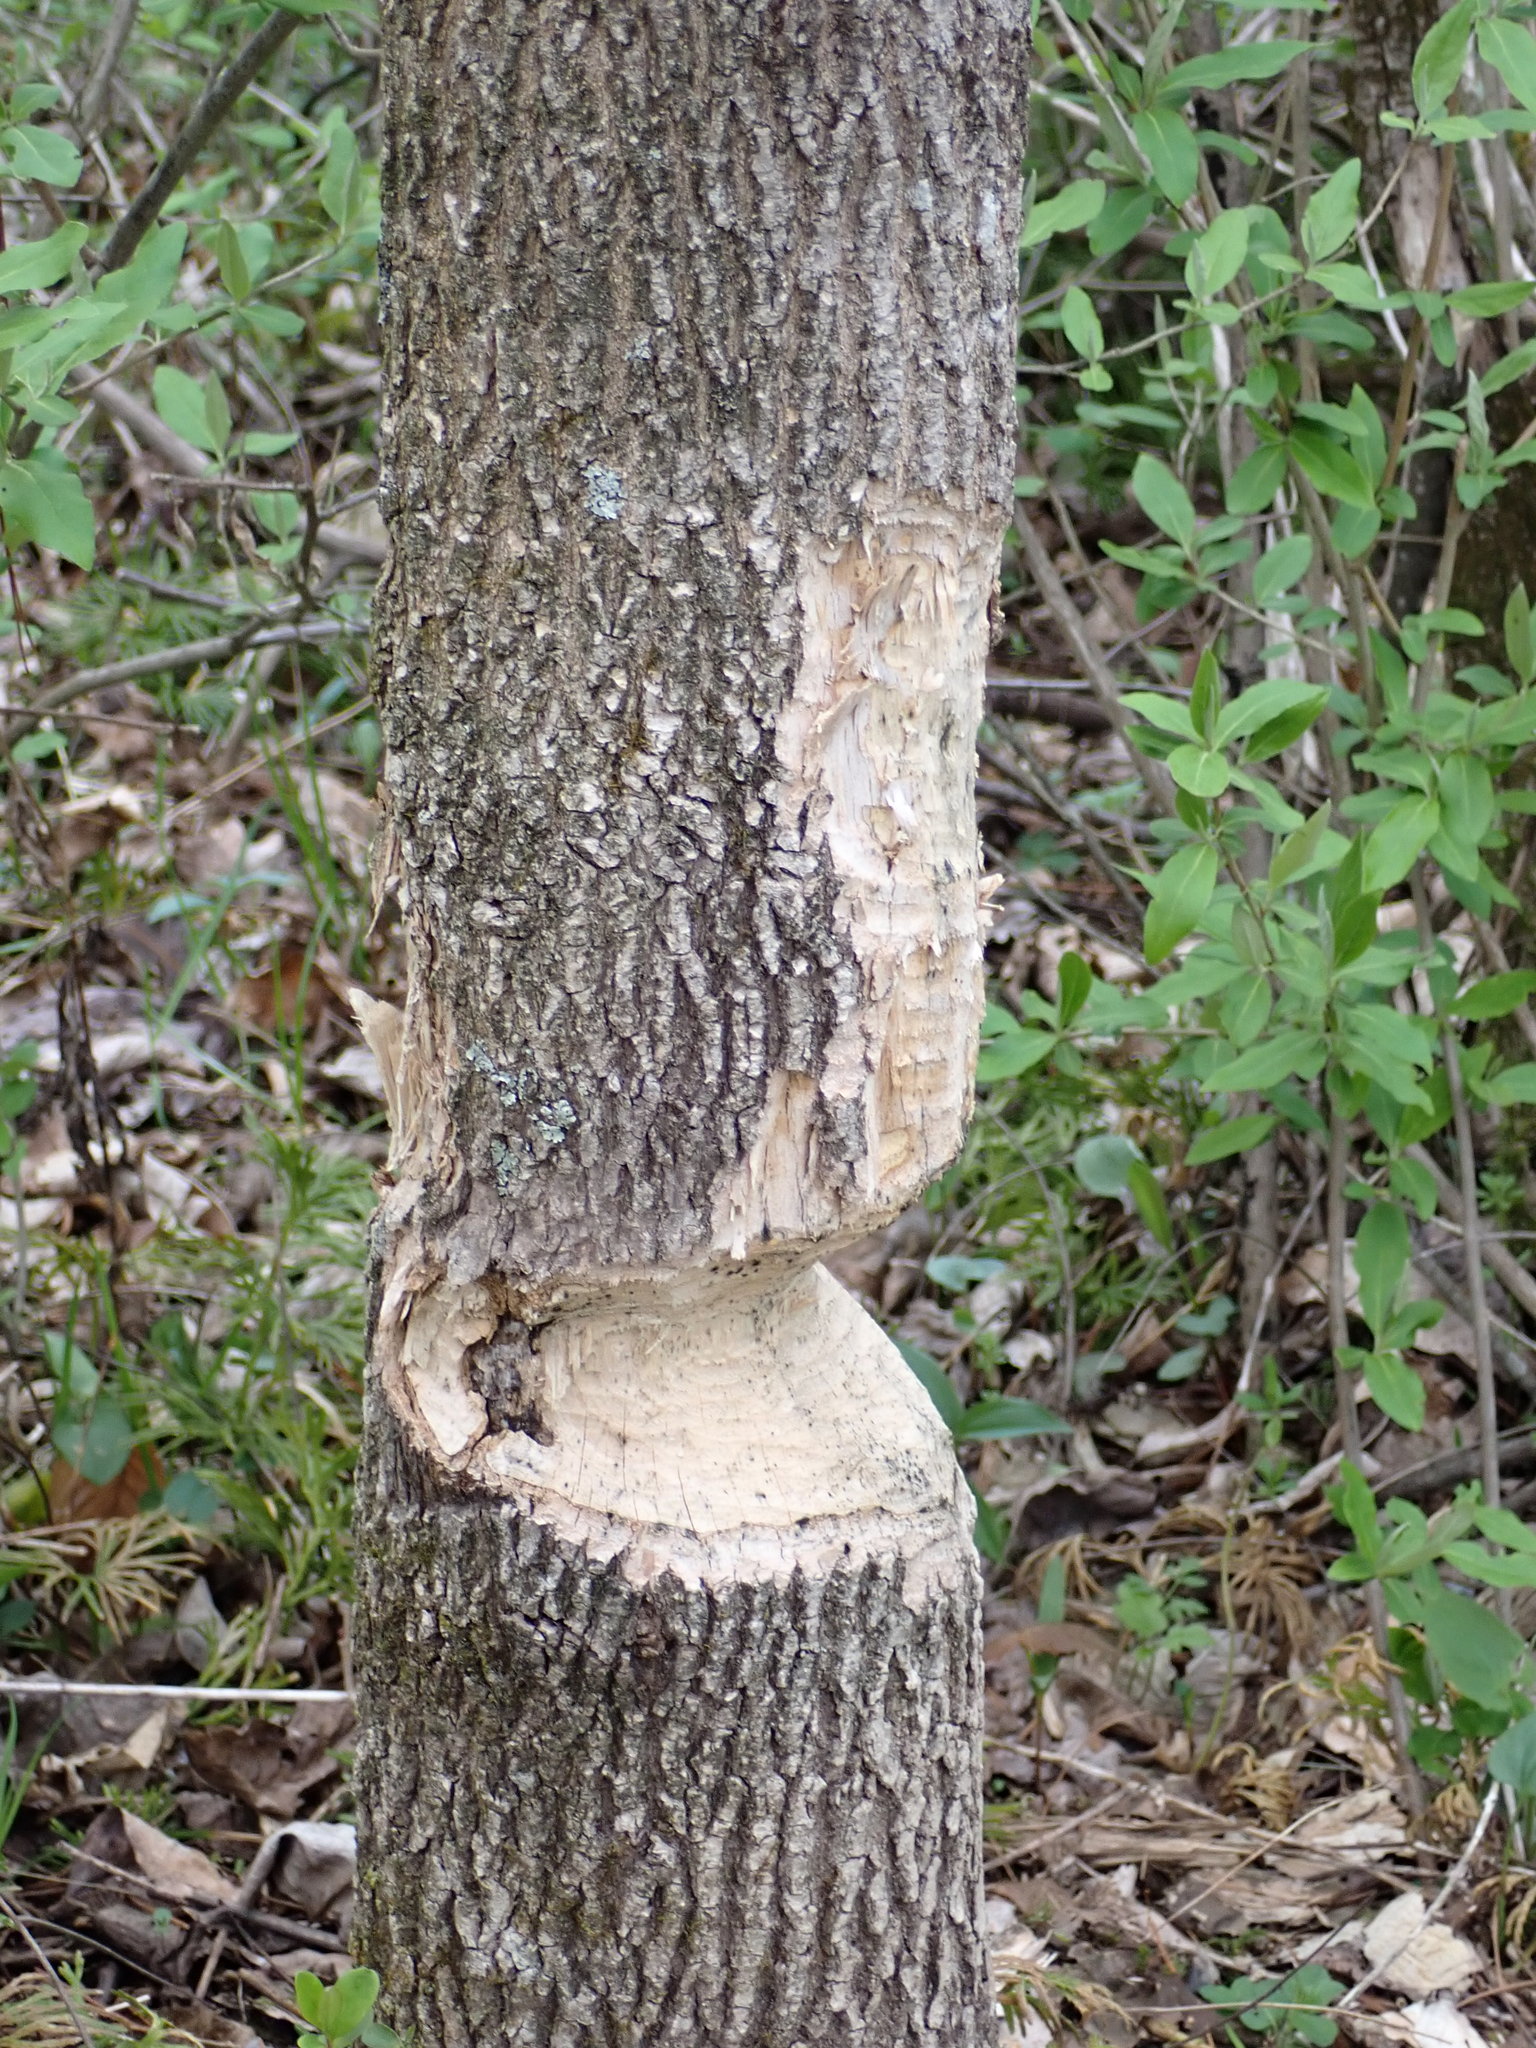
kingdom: Animalia
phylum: Chordata
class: Mammalia
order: Rodentia
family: Castoridae
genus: Castor
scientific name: Castor canadensis
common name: American beaver
